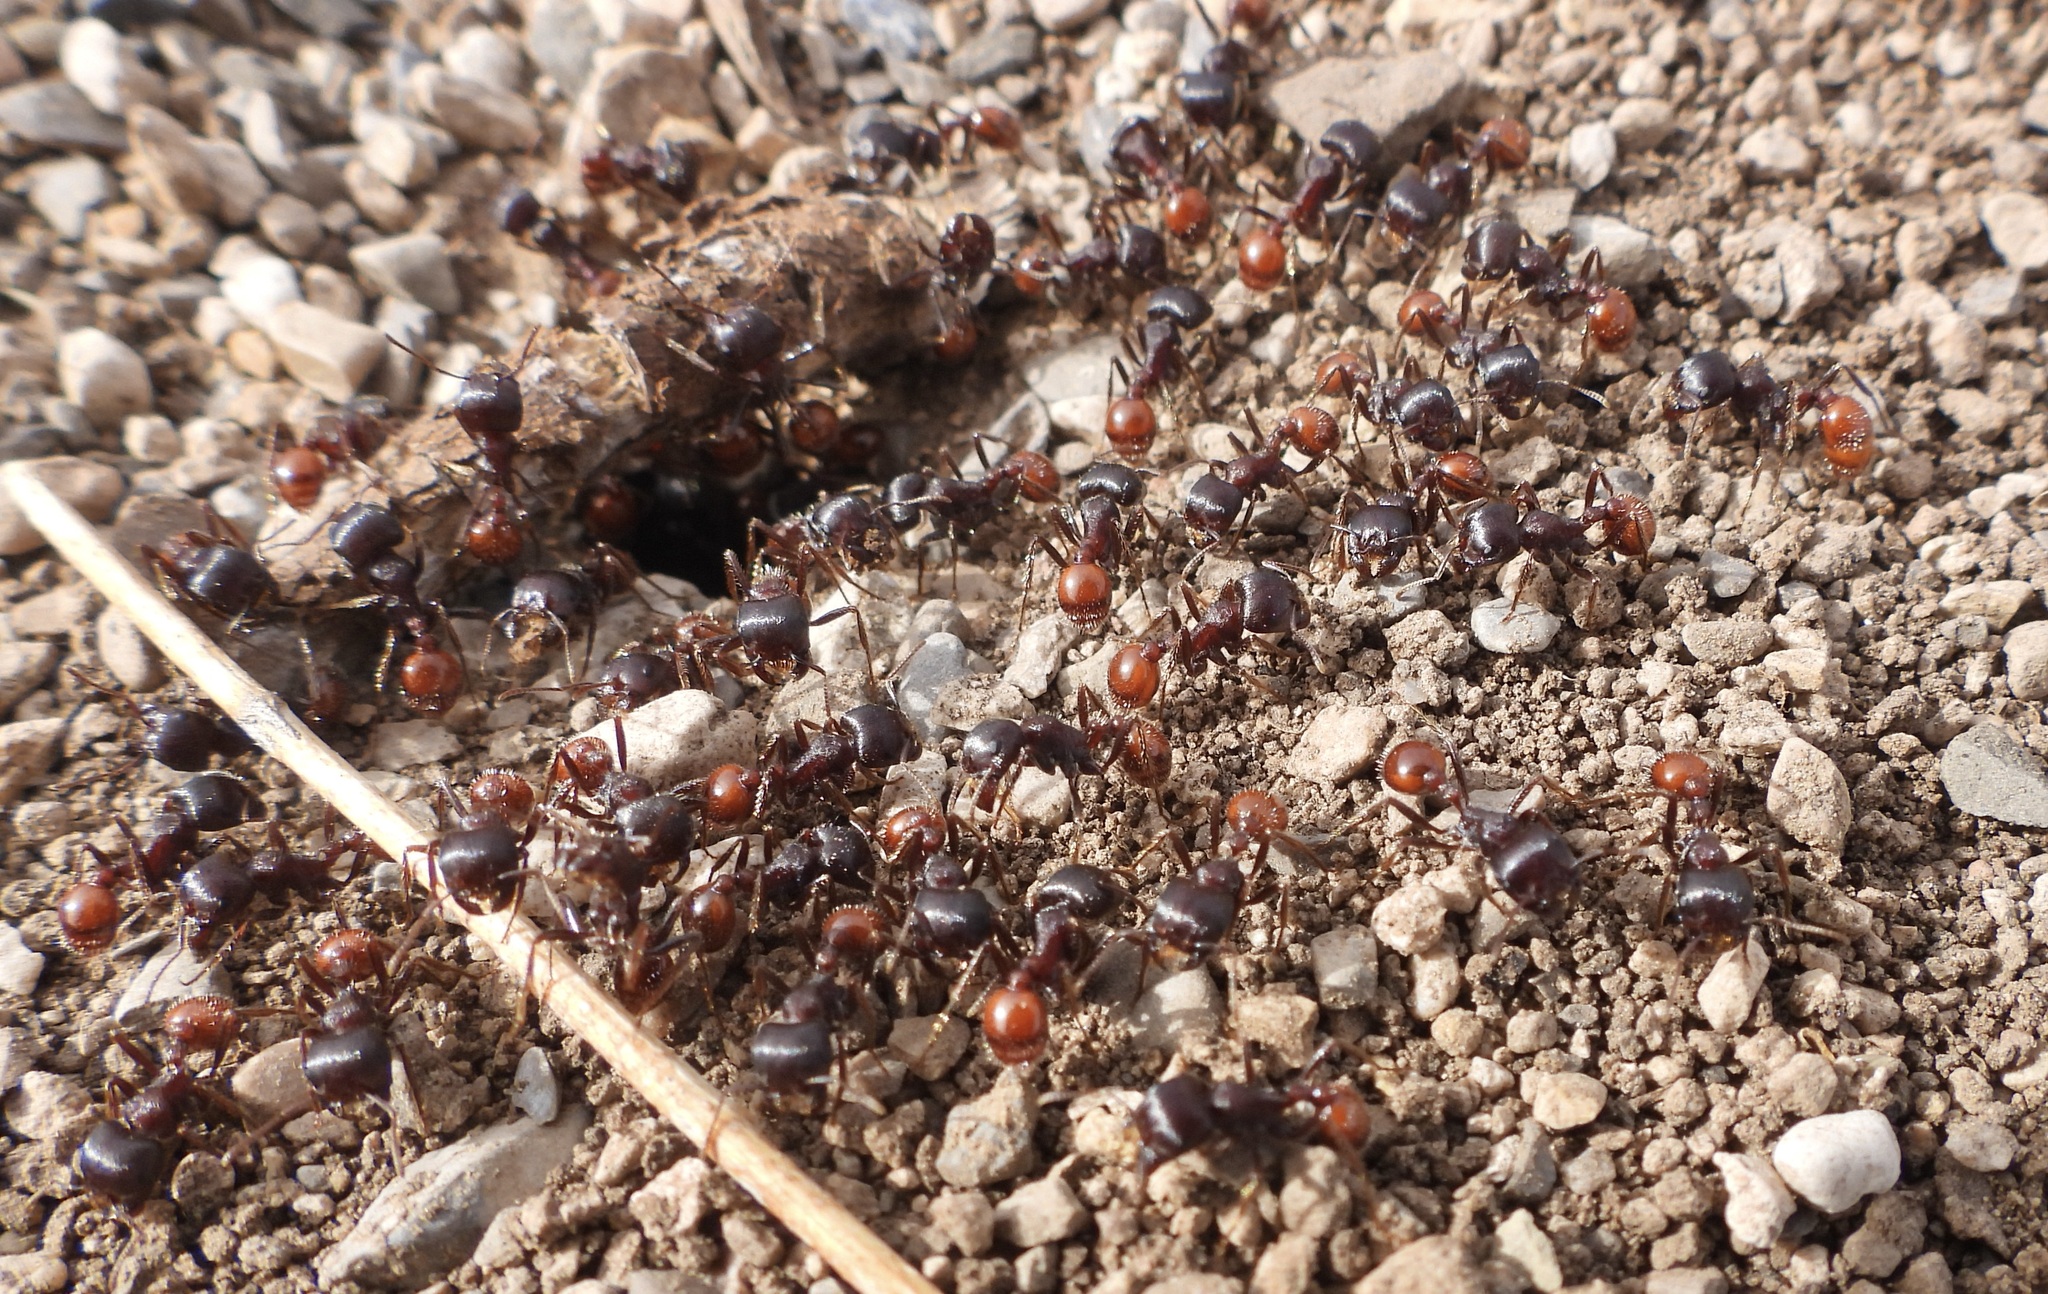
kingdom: Animalia
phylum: Arthropoda
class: Insecta
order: Hymenoptera
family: Formicidae
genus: Pogonomyrmex
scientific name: Pogonomyrmex rugosus
